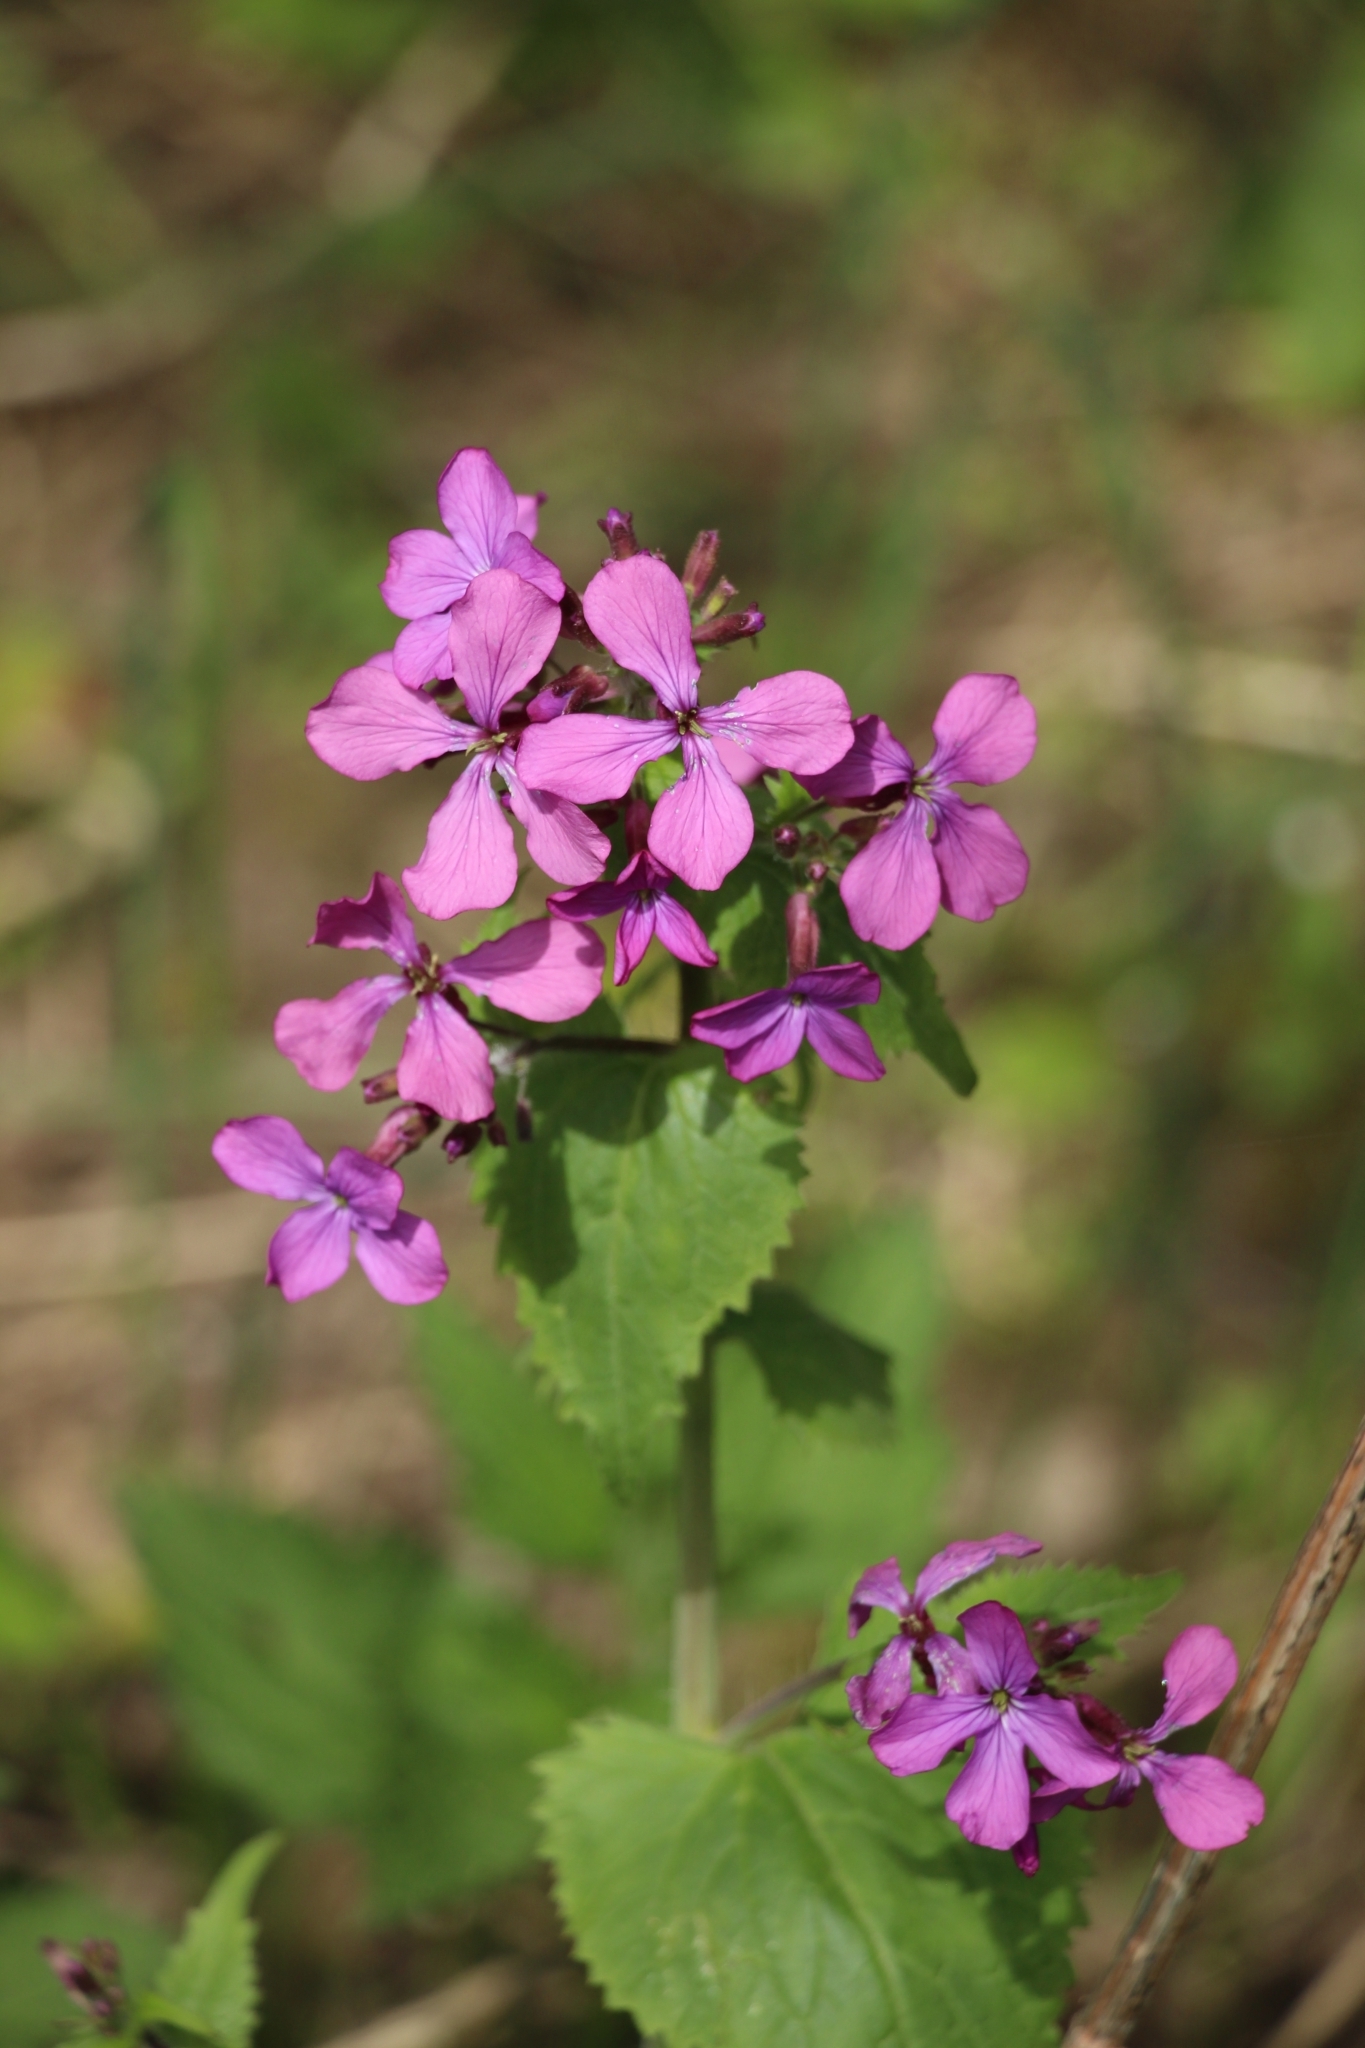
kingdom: Plantae
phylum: Tracheophyta
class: Magnoliopsida
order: Brassicales
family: Brassicaceae
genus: Lunaria
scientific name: Lunaria annua
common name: Honesty
